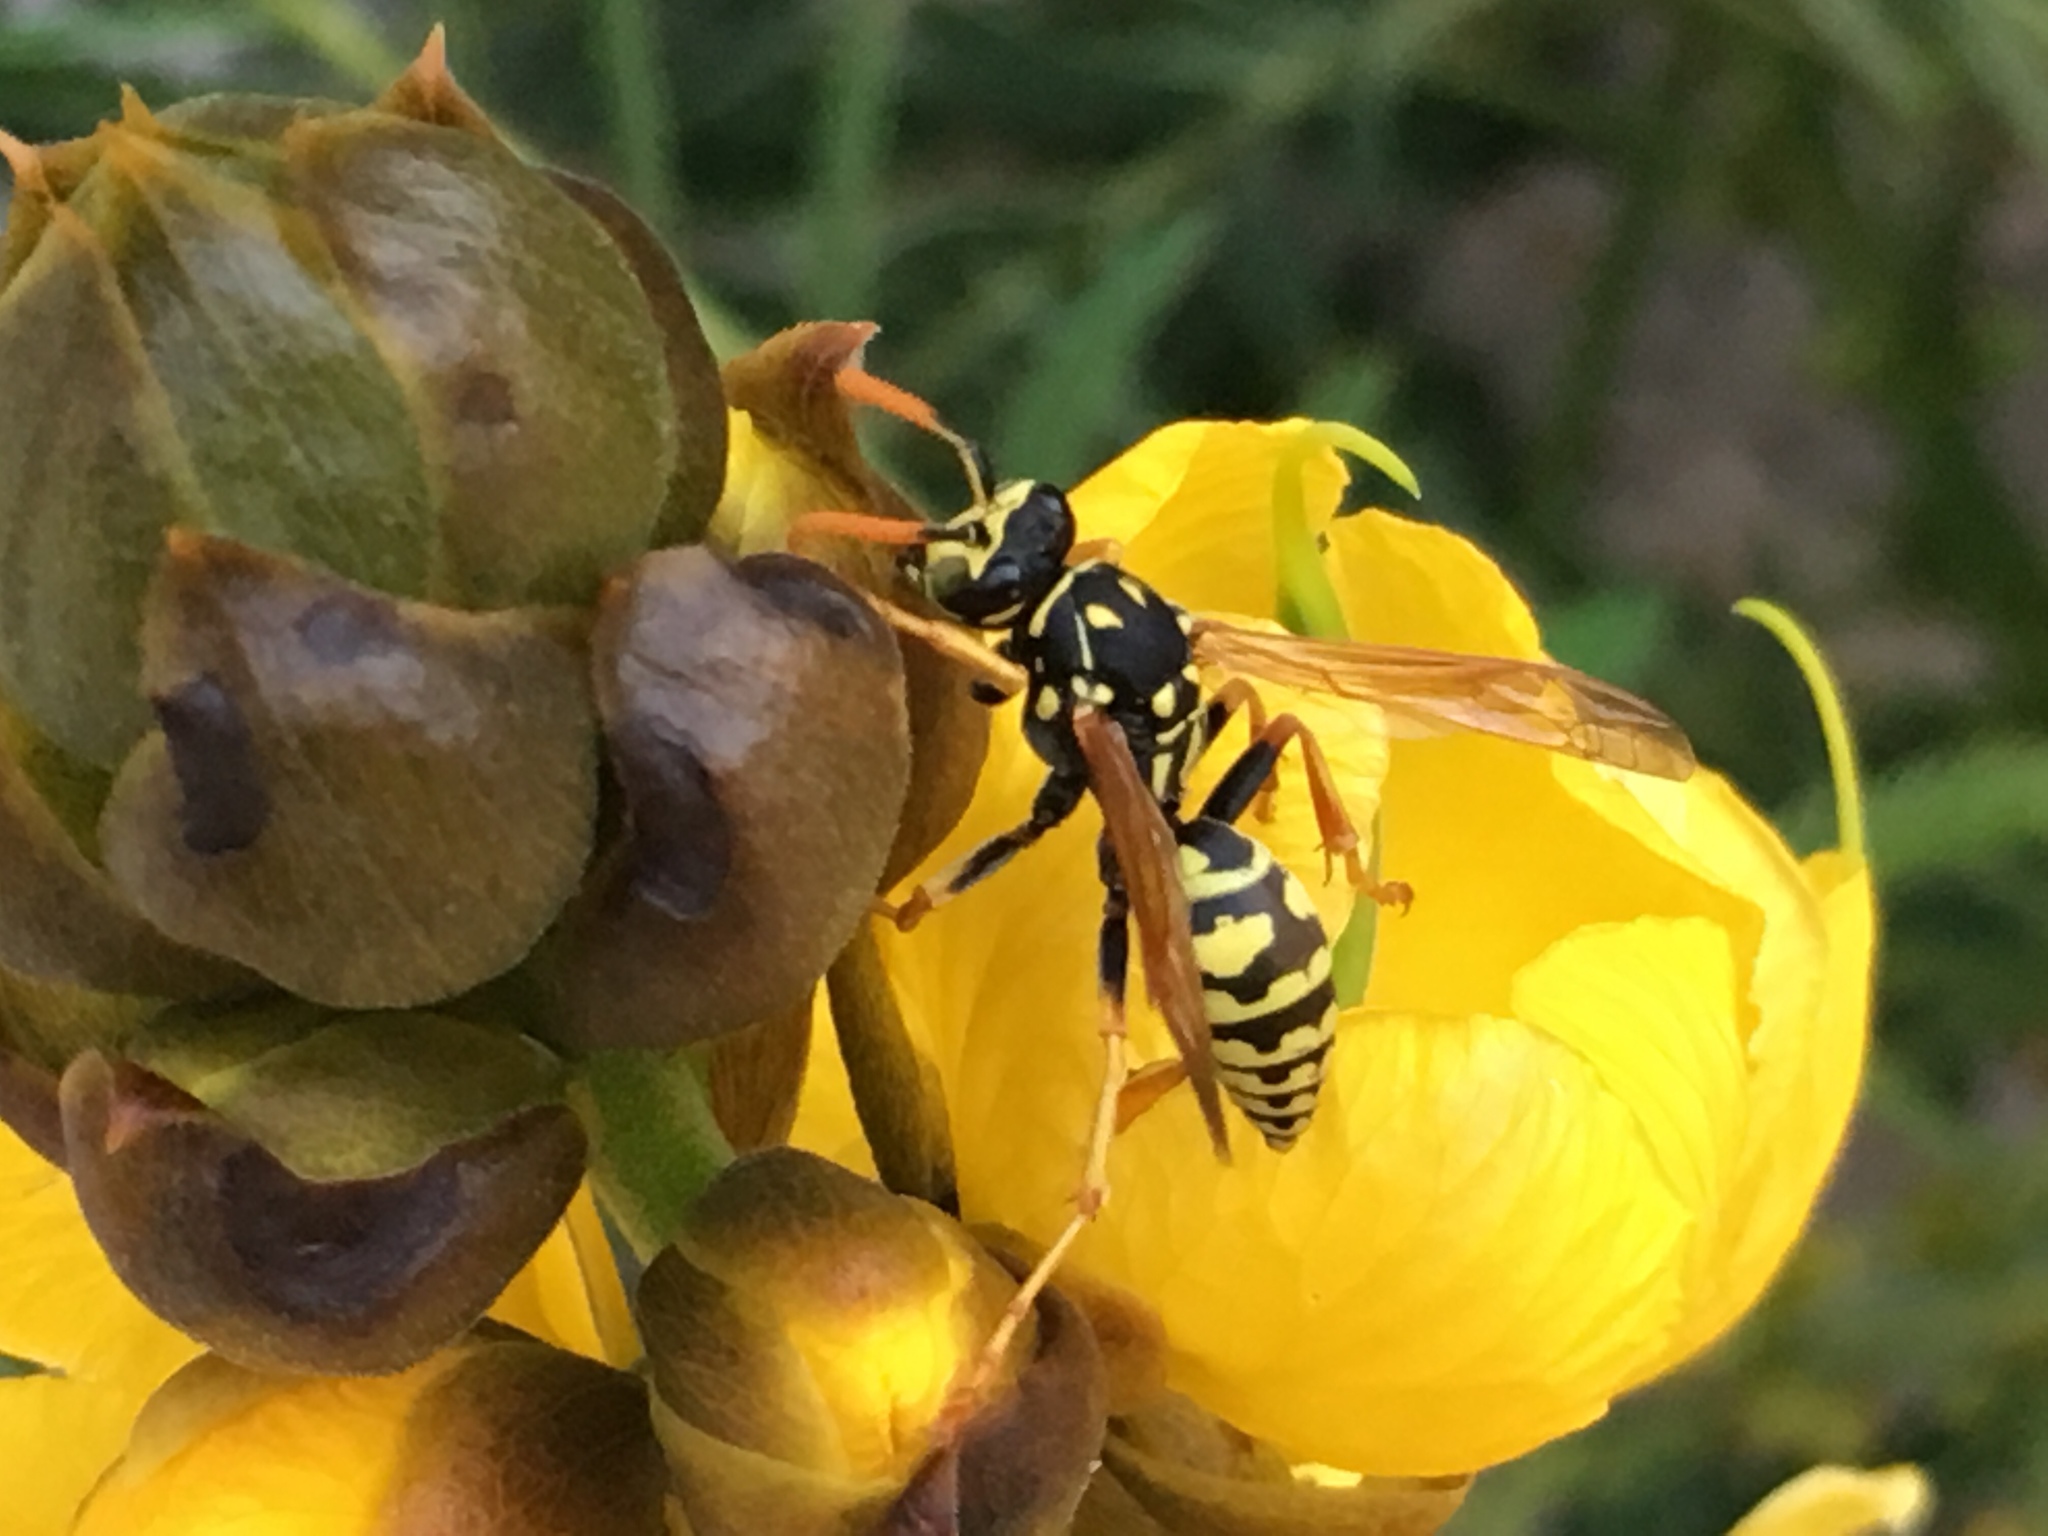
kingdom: Animalia
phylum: Arthropoda
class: Insecta
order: Hymenoptera
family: Eumenidae
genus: Polistes
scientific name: Polistes dominula
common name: Paper wasp
